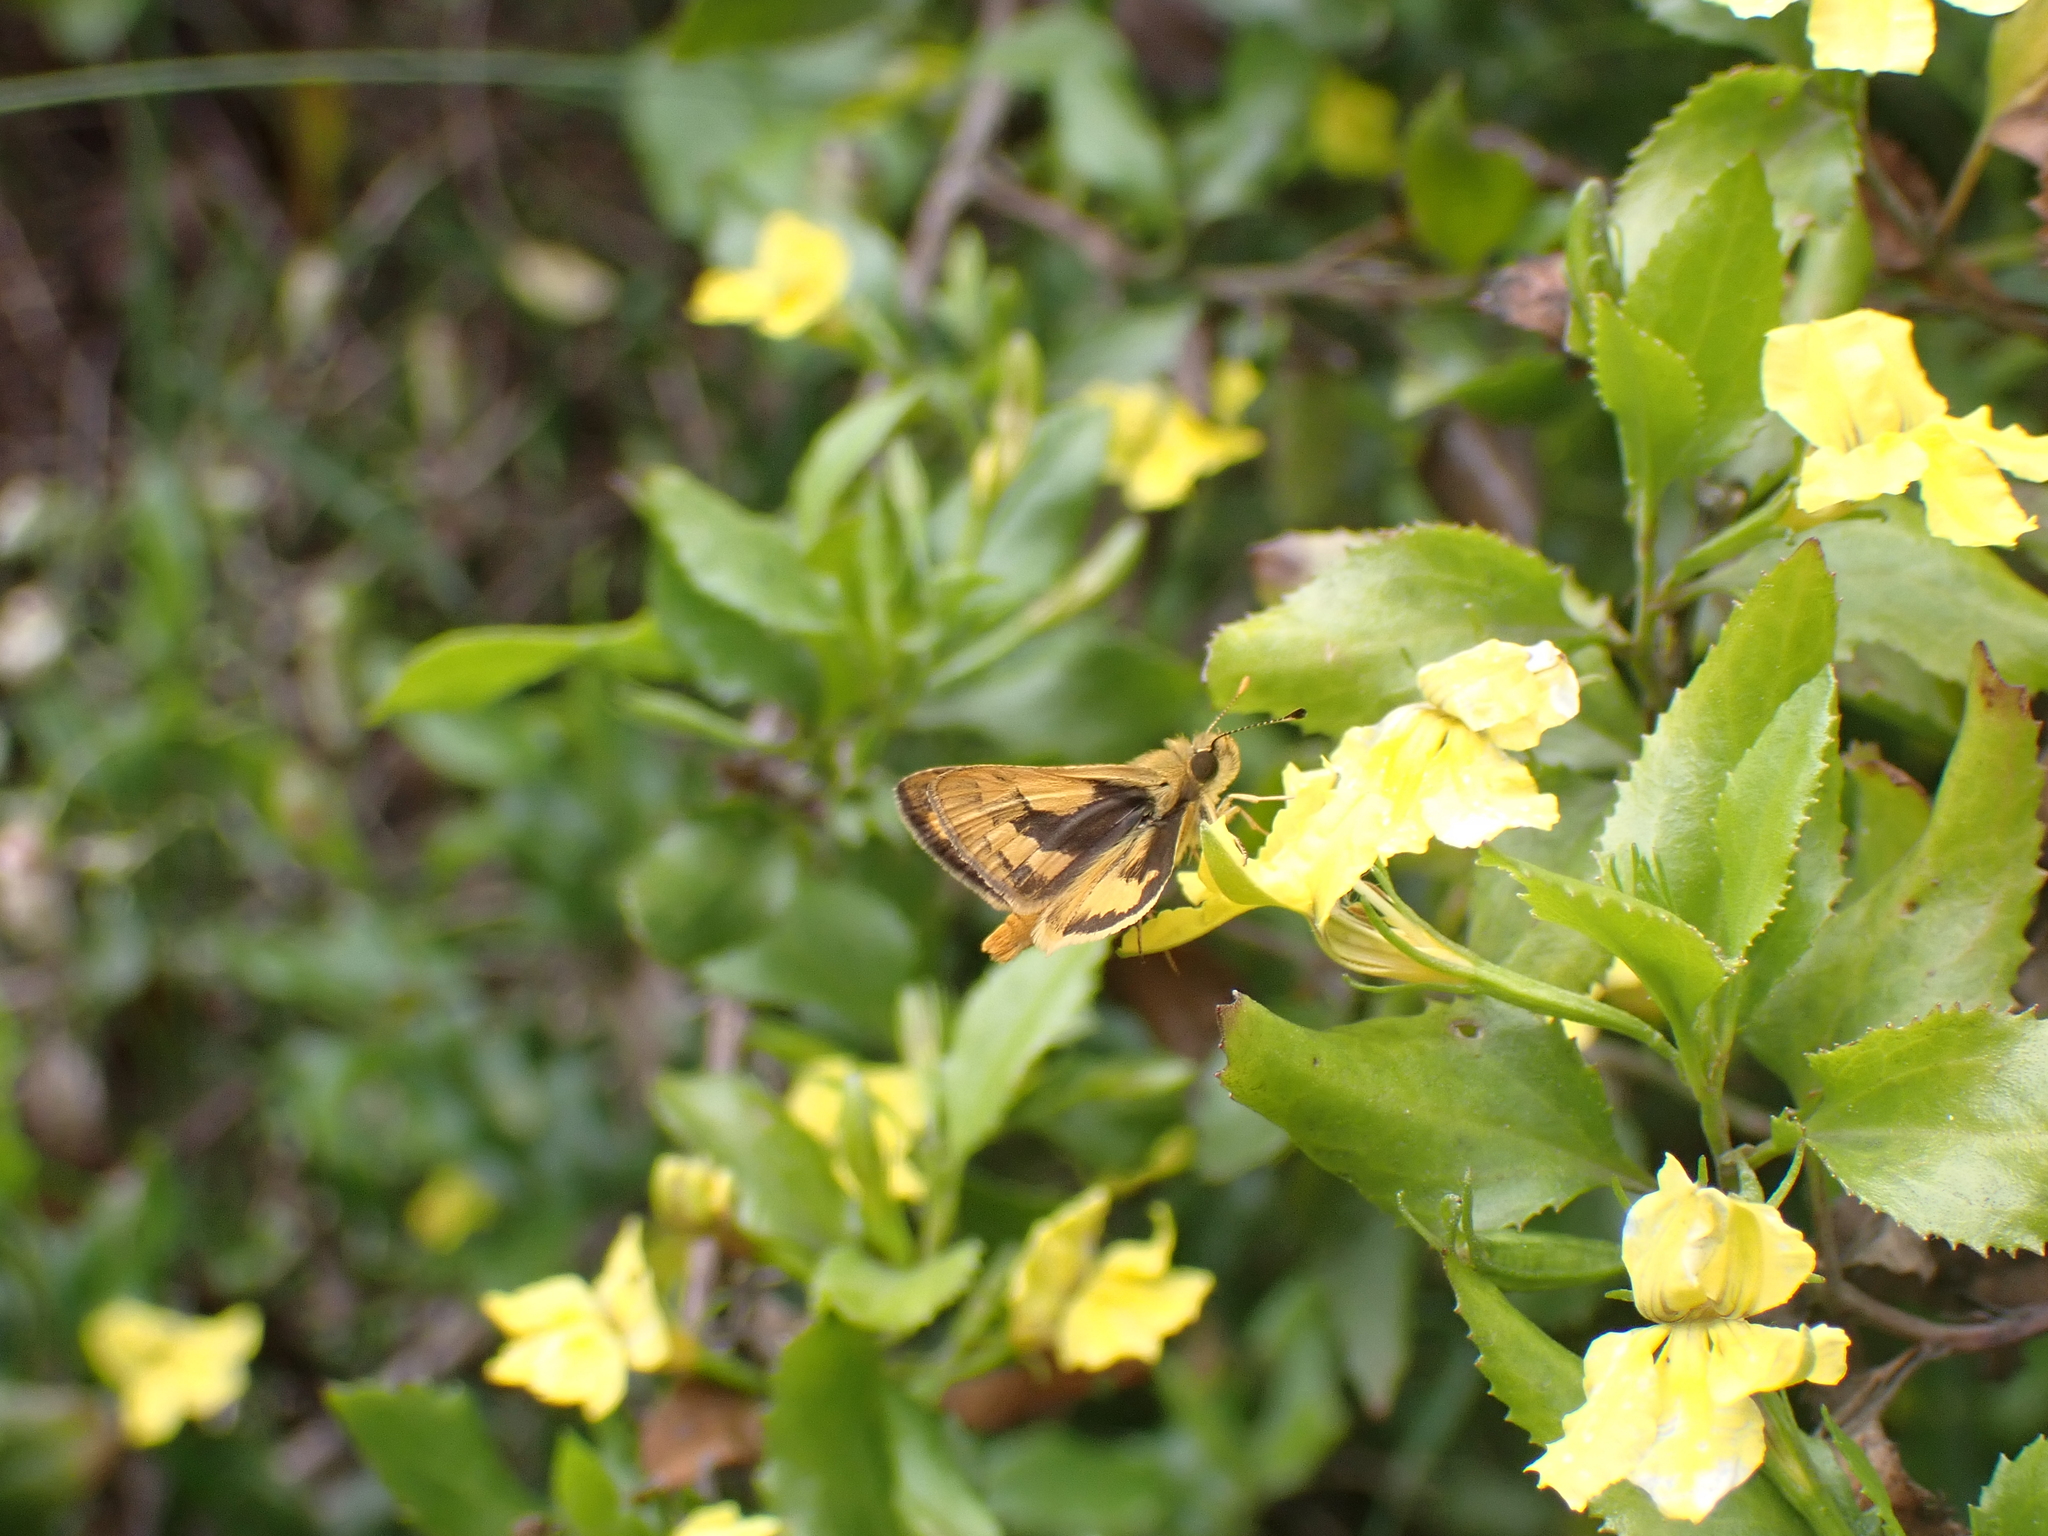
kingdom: Animalia
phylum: Arthropoda
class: Insecta
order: Lepidoptera
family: Hesperiidae
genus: Ocybadistes
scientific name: Ocybadistes walkeri
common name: Yellow-banded dart
